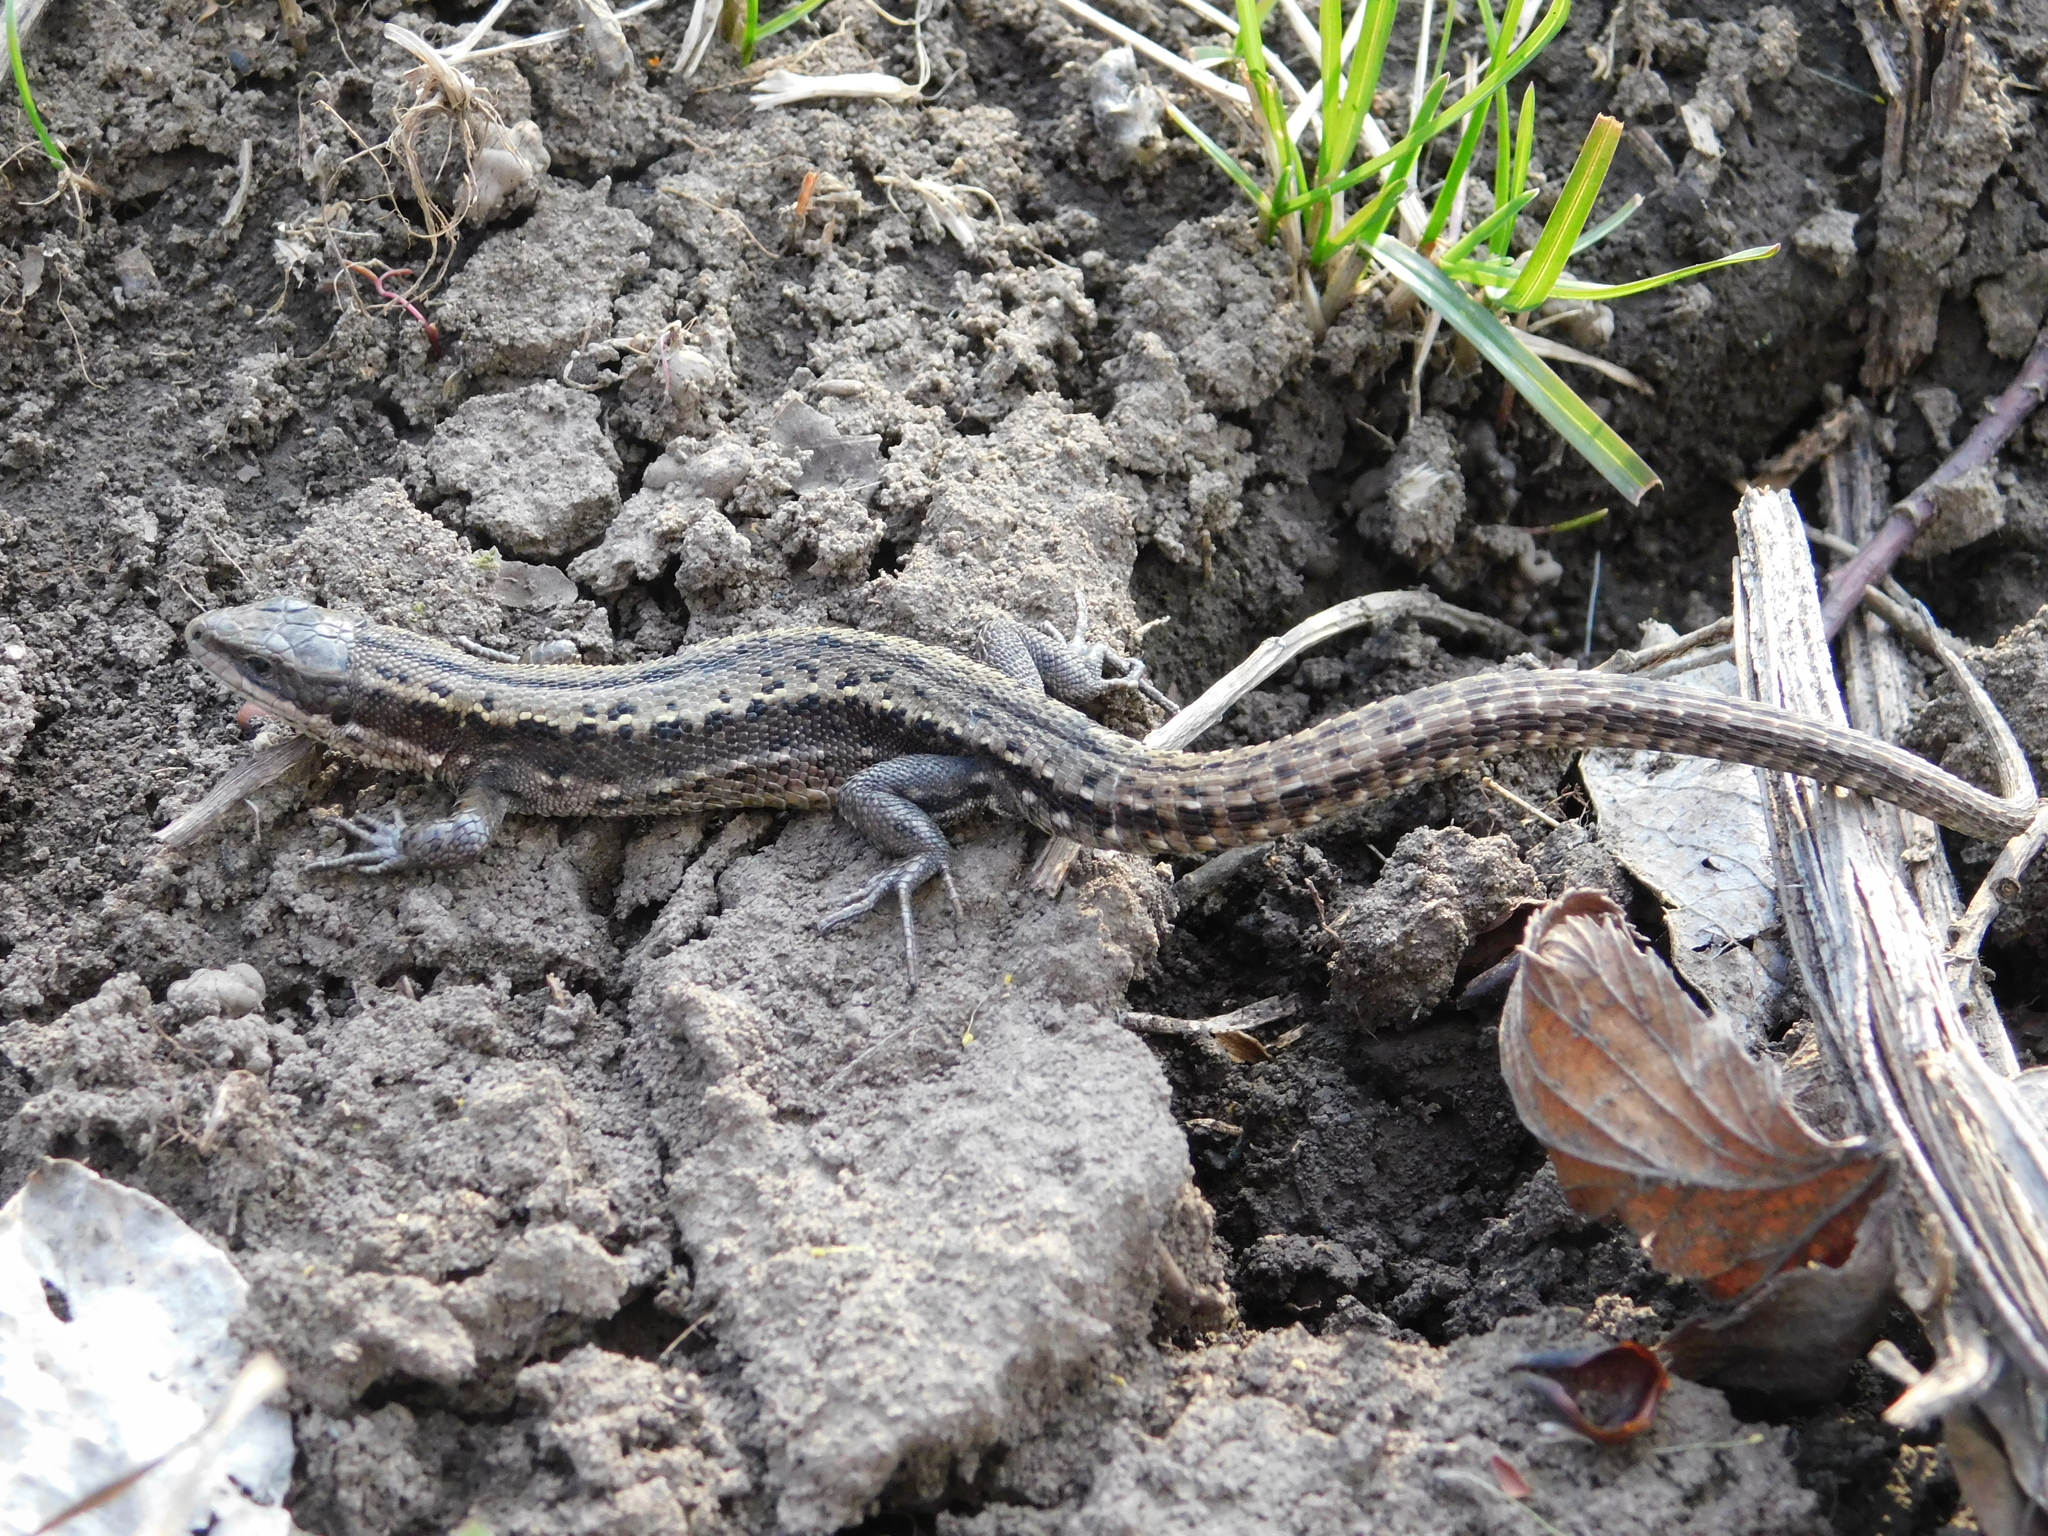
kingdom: Animalia
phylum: Chordata
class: Squamata
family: Lacertidae
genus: Zootoca
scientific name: Zootoca vivipara
